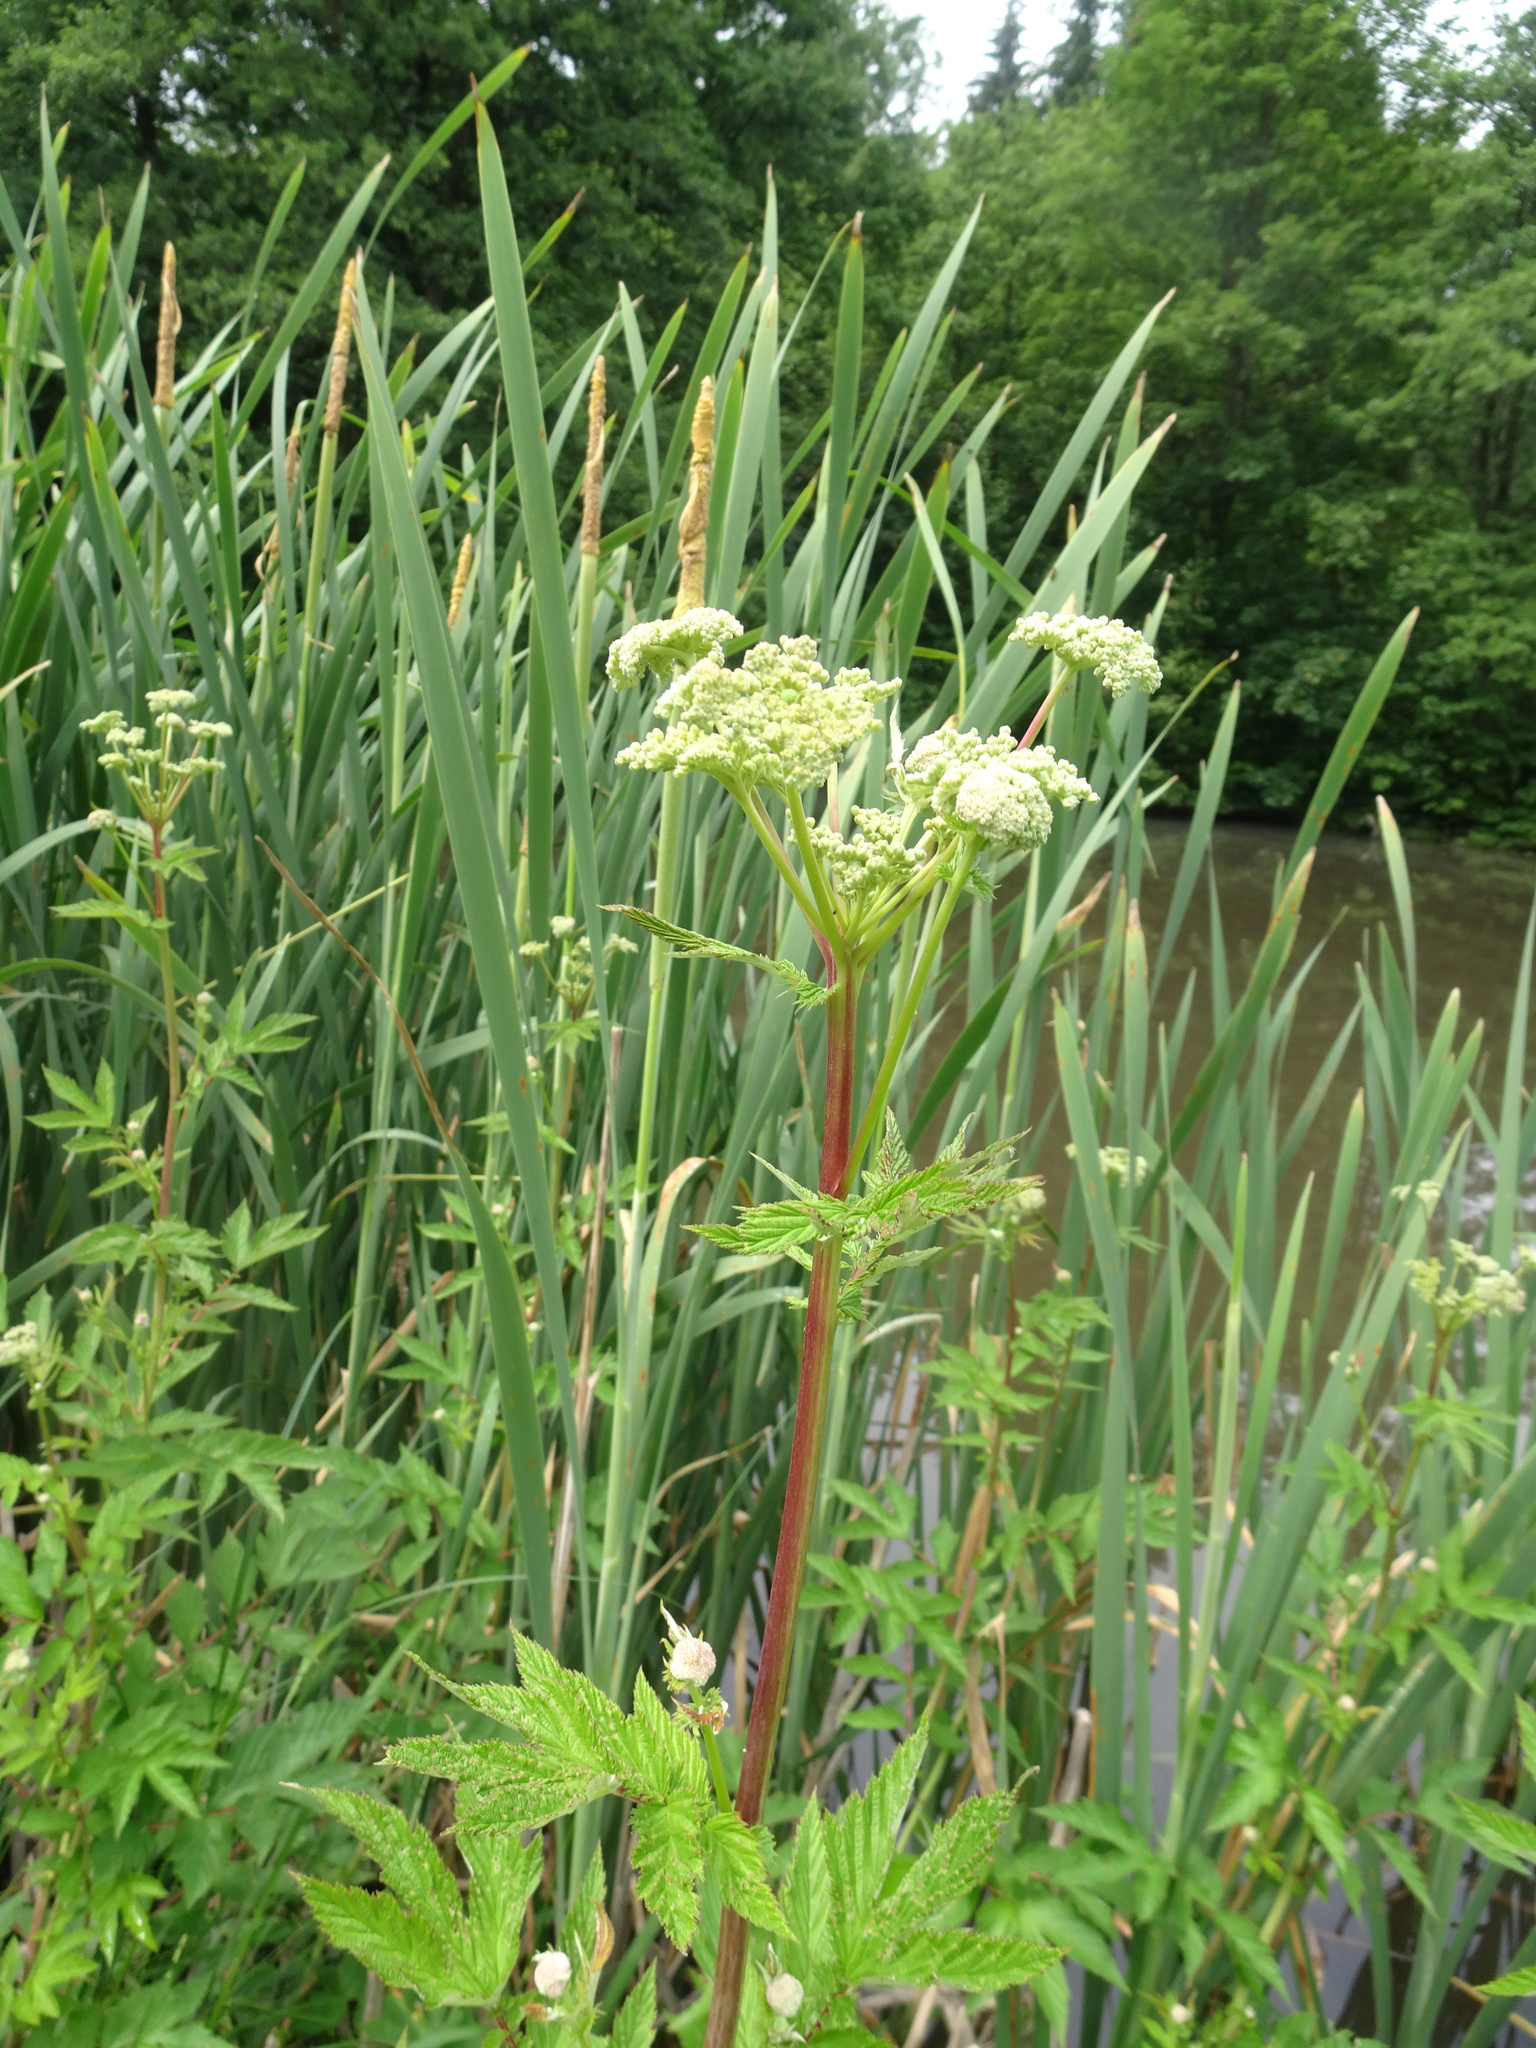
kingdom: Plantae
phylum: Tracheophyta
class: Magnoliopsida
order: Rosales
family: Rosaceae
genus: Filipendula
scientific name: Filipendula ulmaria
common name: Meadowsweet
